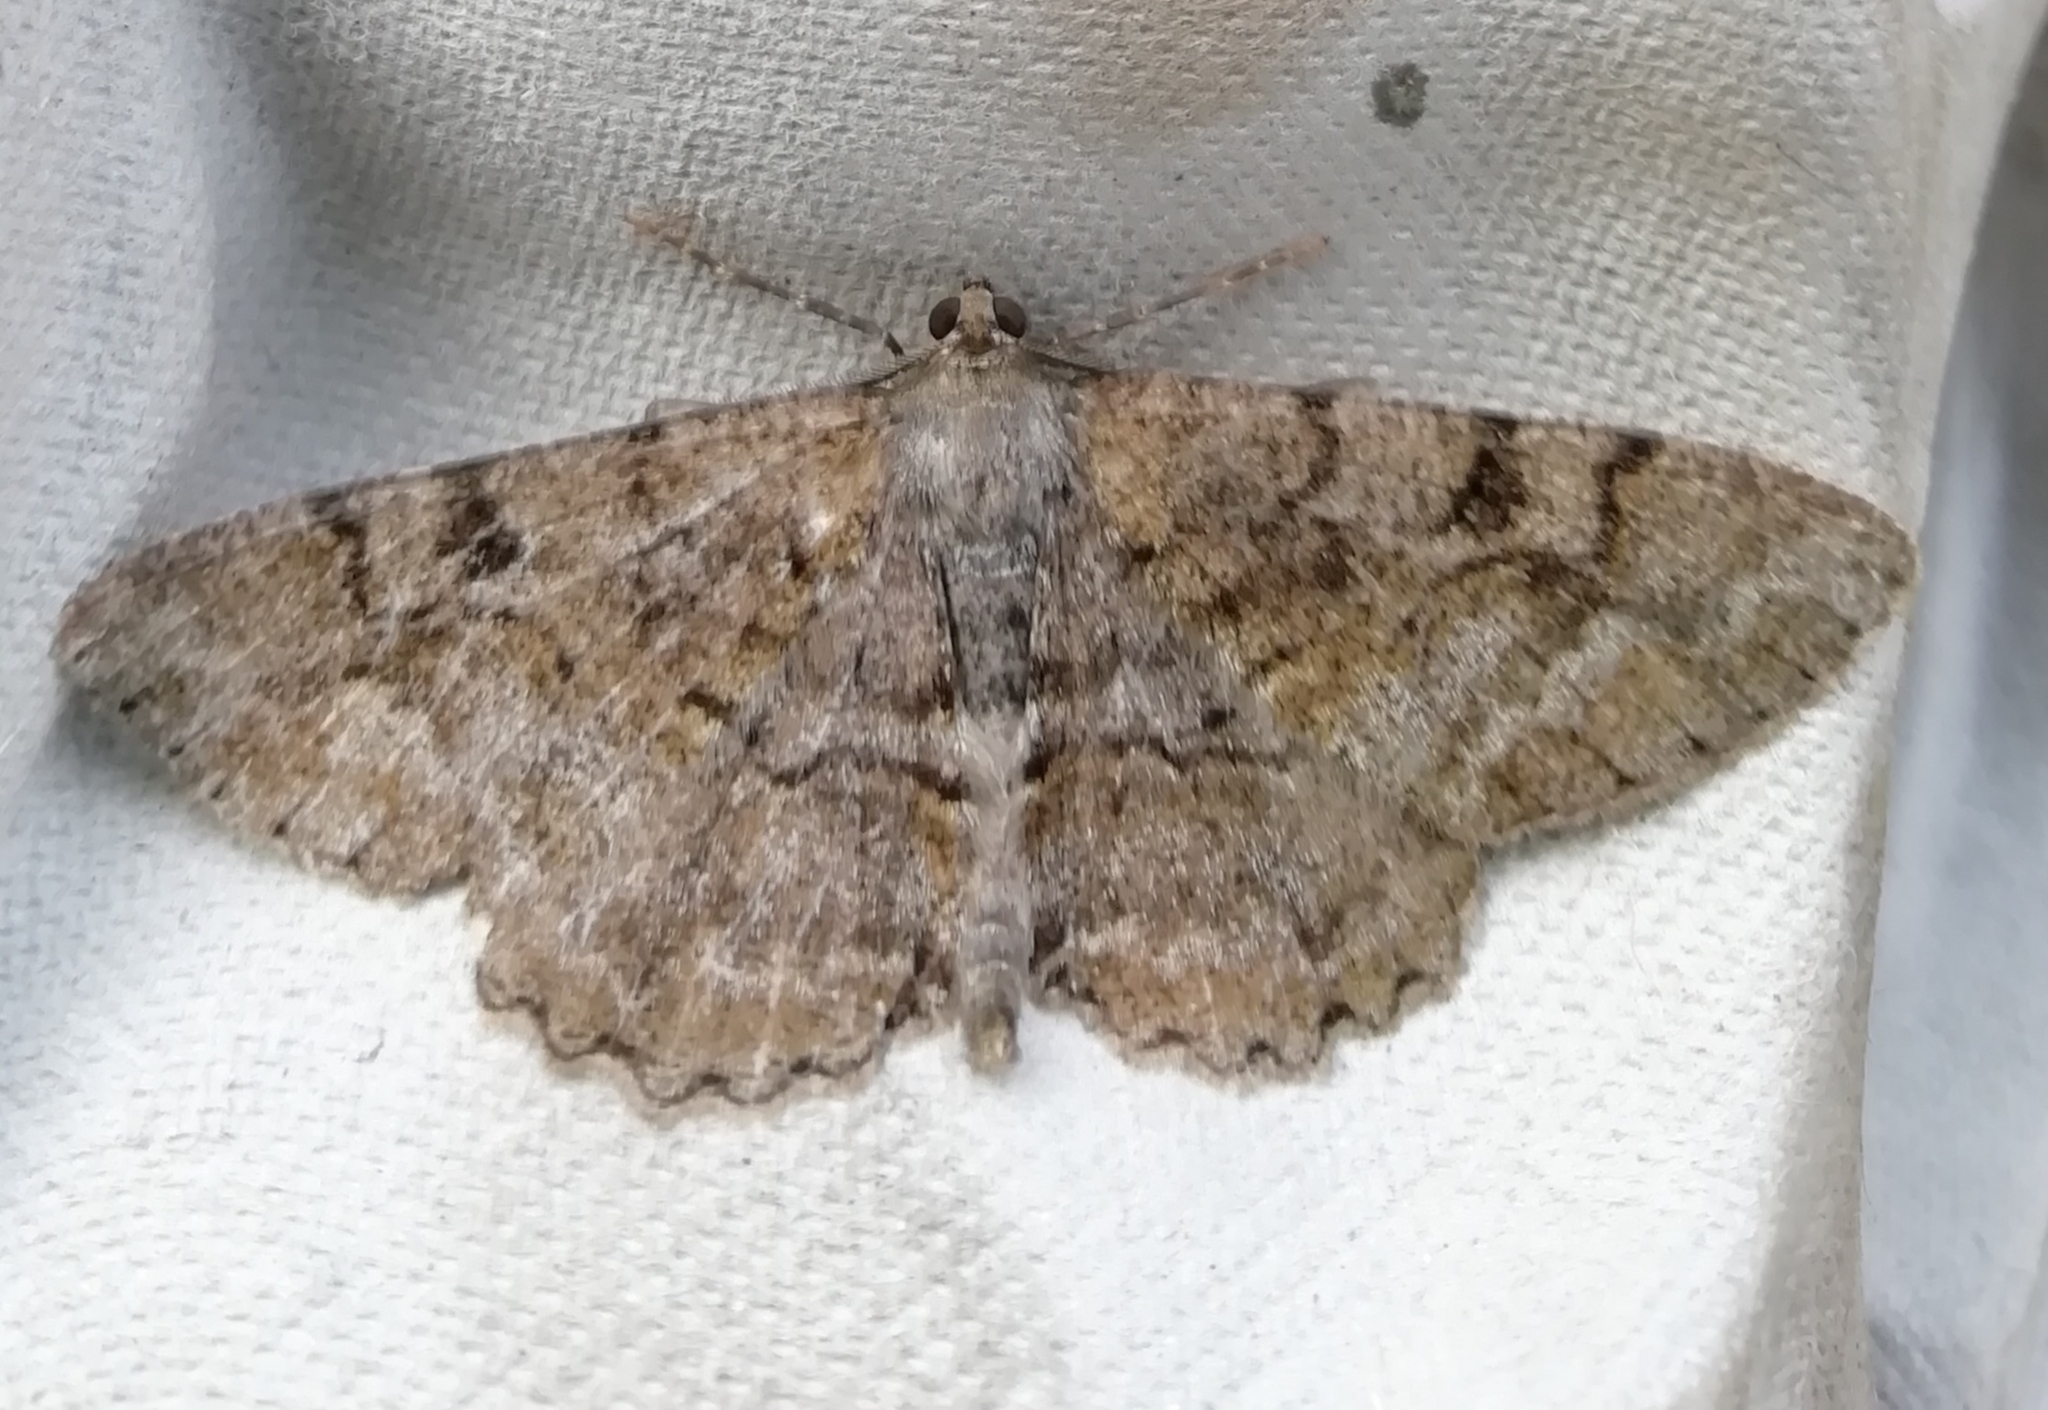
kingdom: Animalia
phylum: Arthropoda
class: Insecta
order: Lepidoptera
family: Geometridae
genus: Alcis
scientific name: Alcis repandata
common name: Mottled beauty
